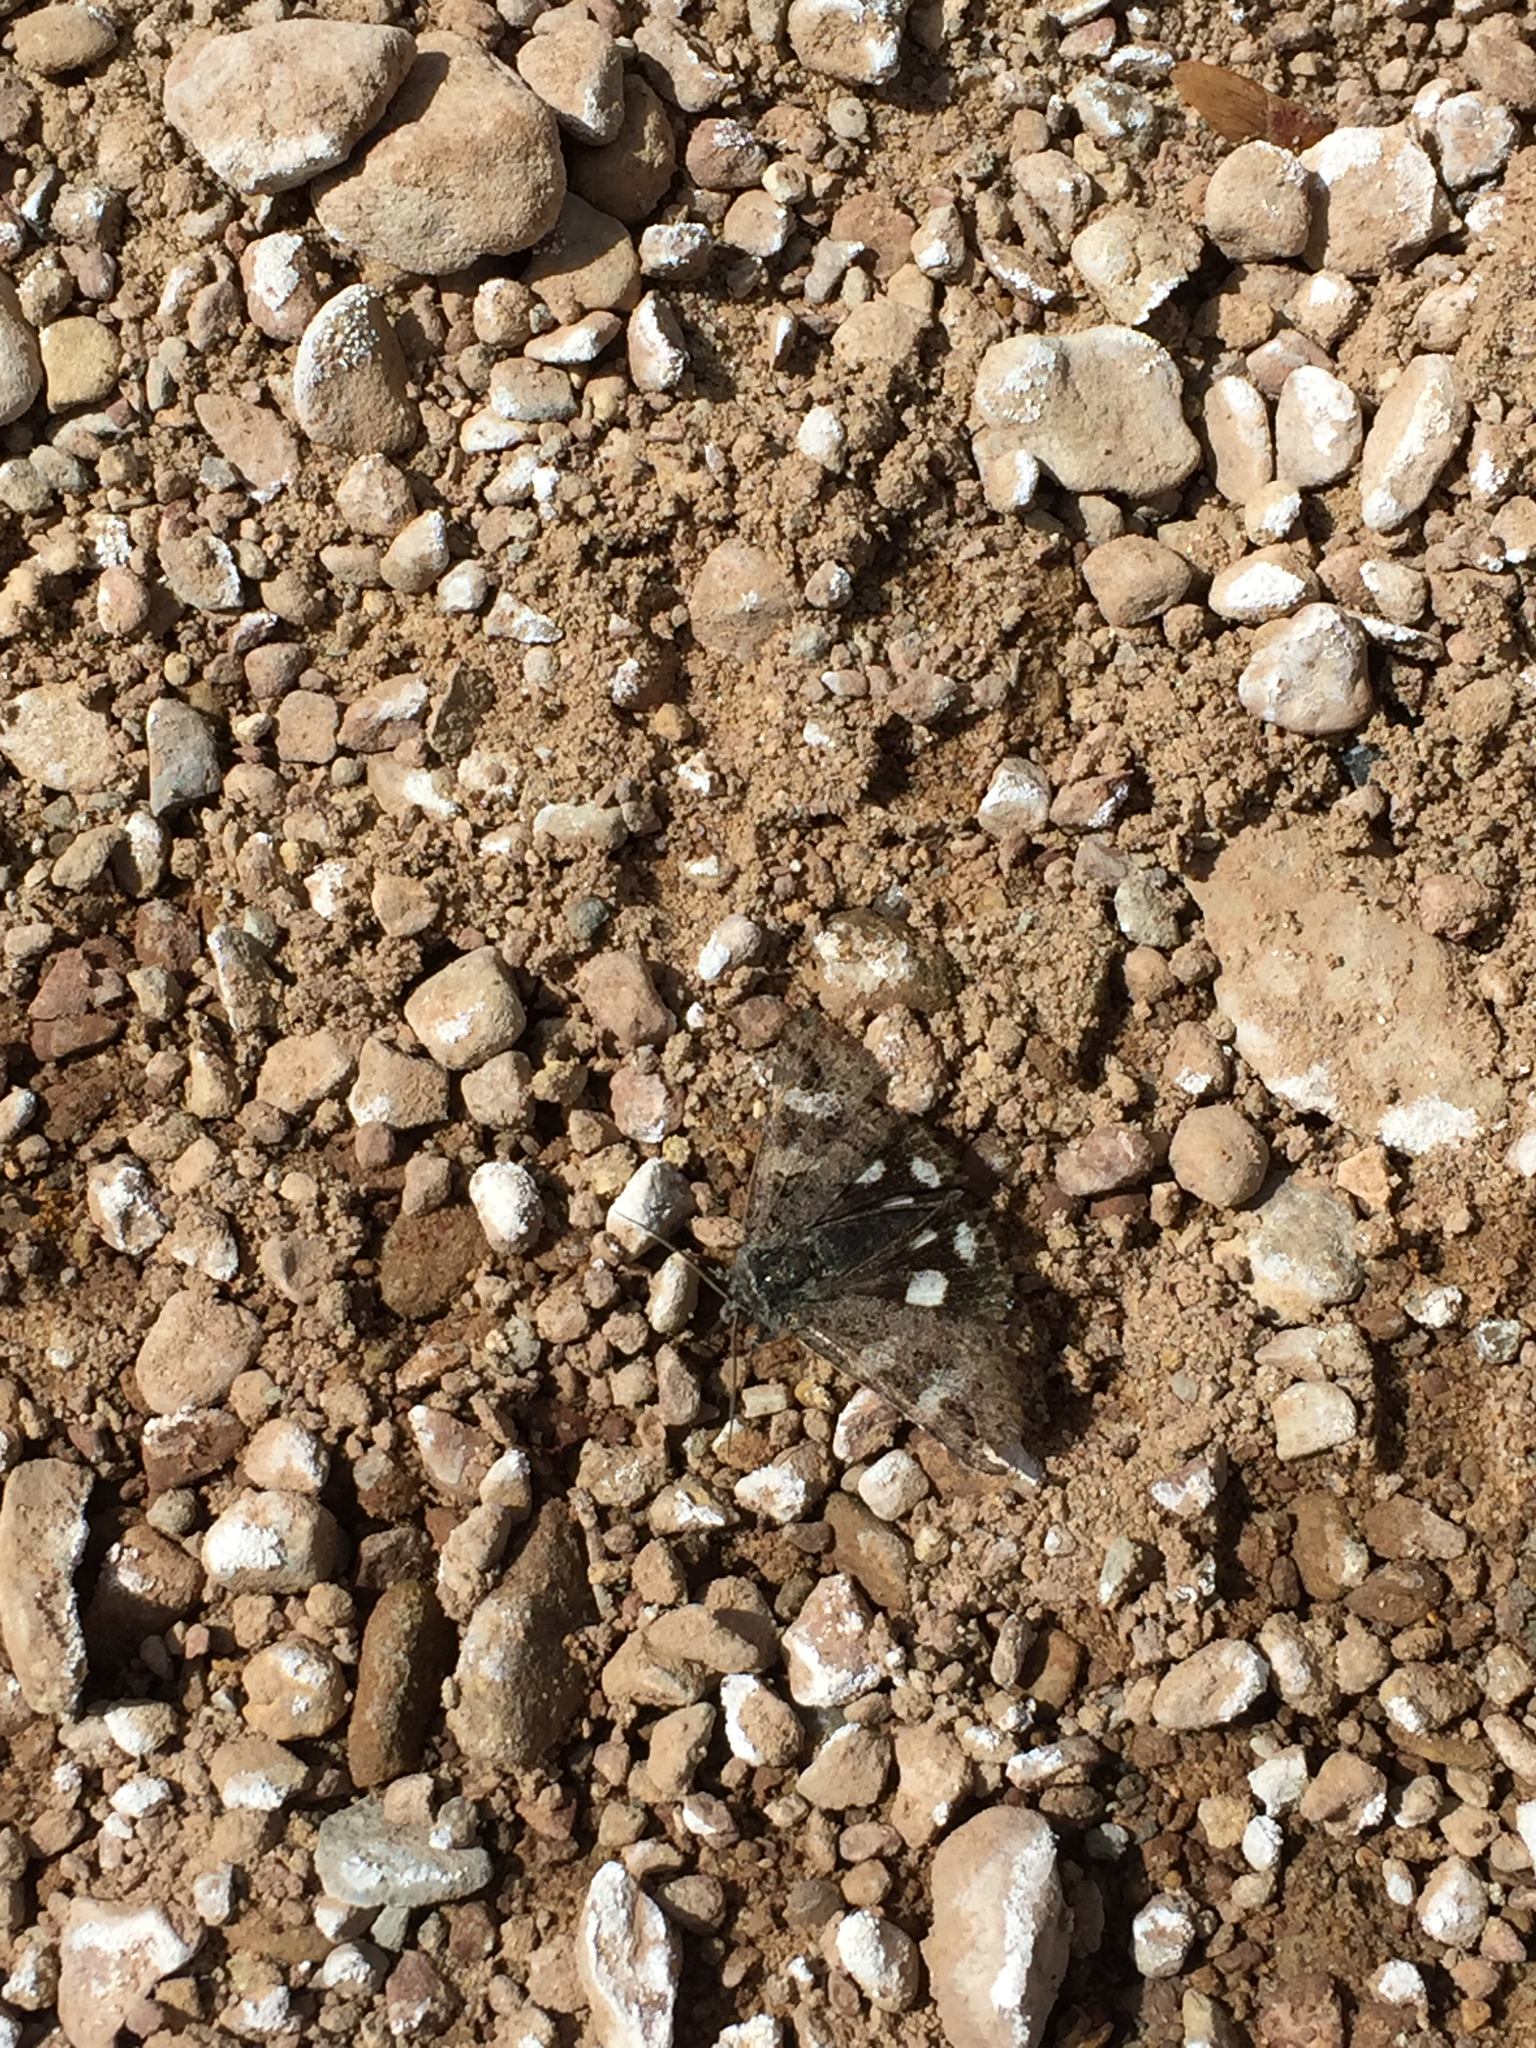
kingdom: Animalia
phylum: Arthropoda
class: Insecta
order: Lepidoptera
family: Erebidae
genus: Litocala
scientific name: Litocala sexsignata
